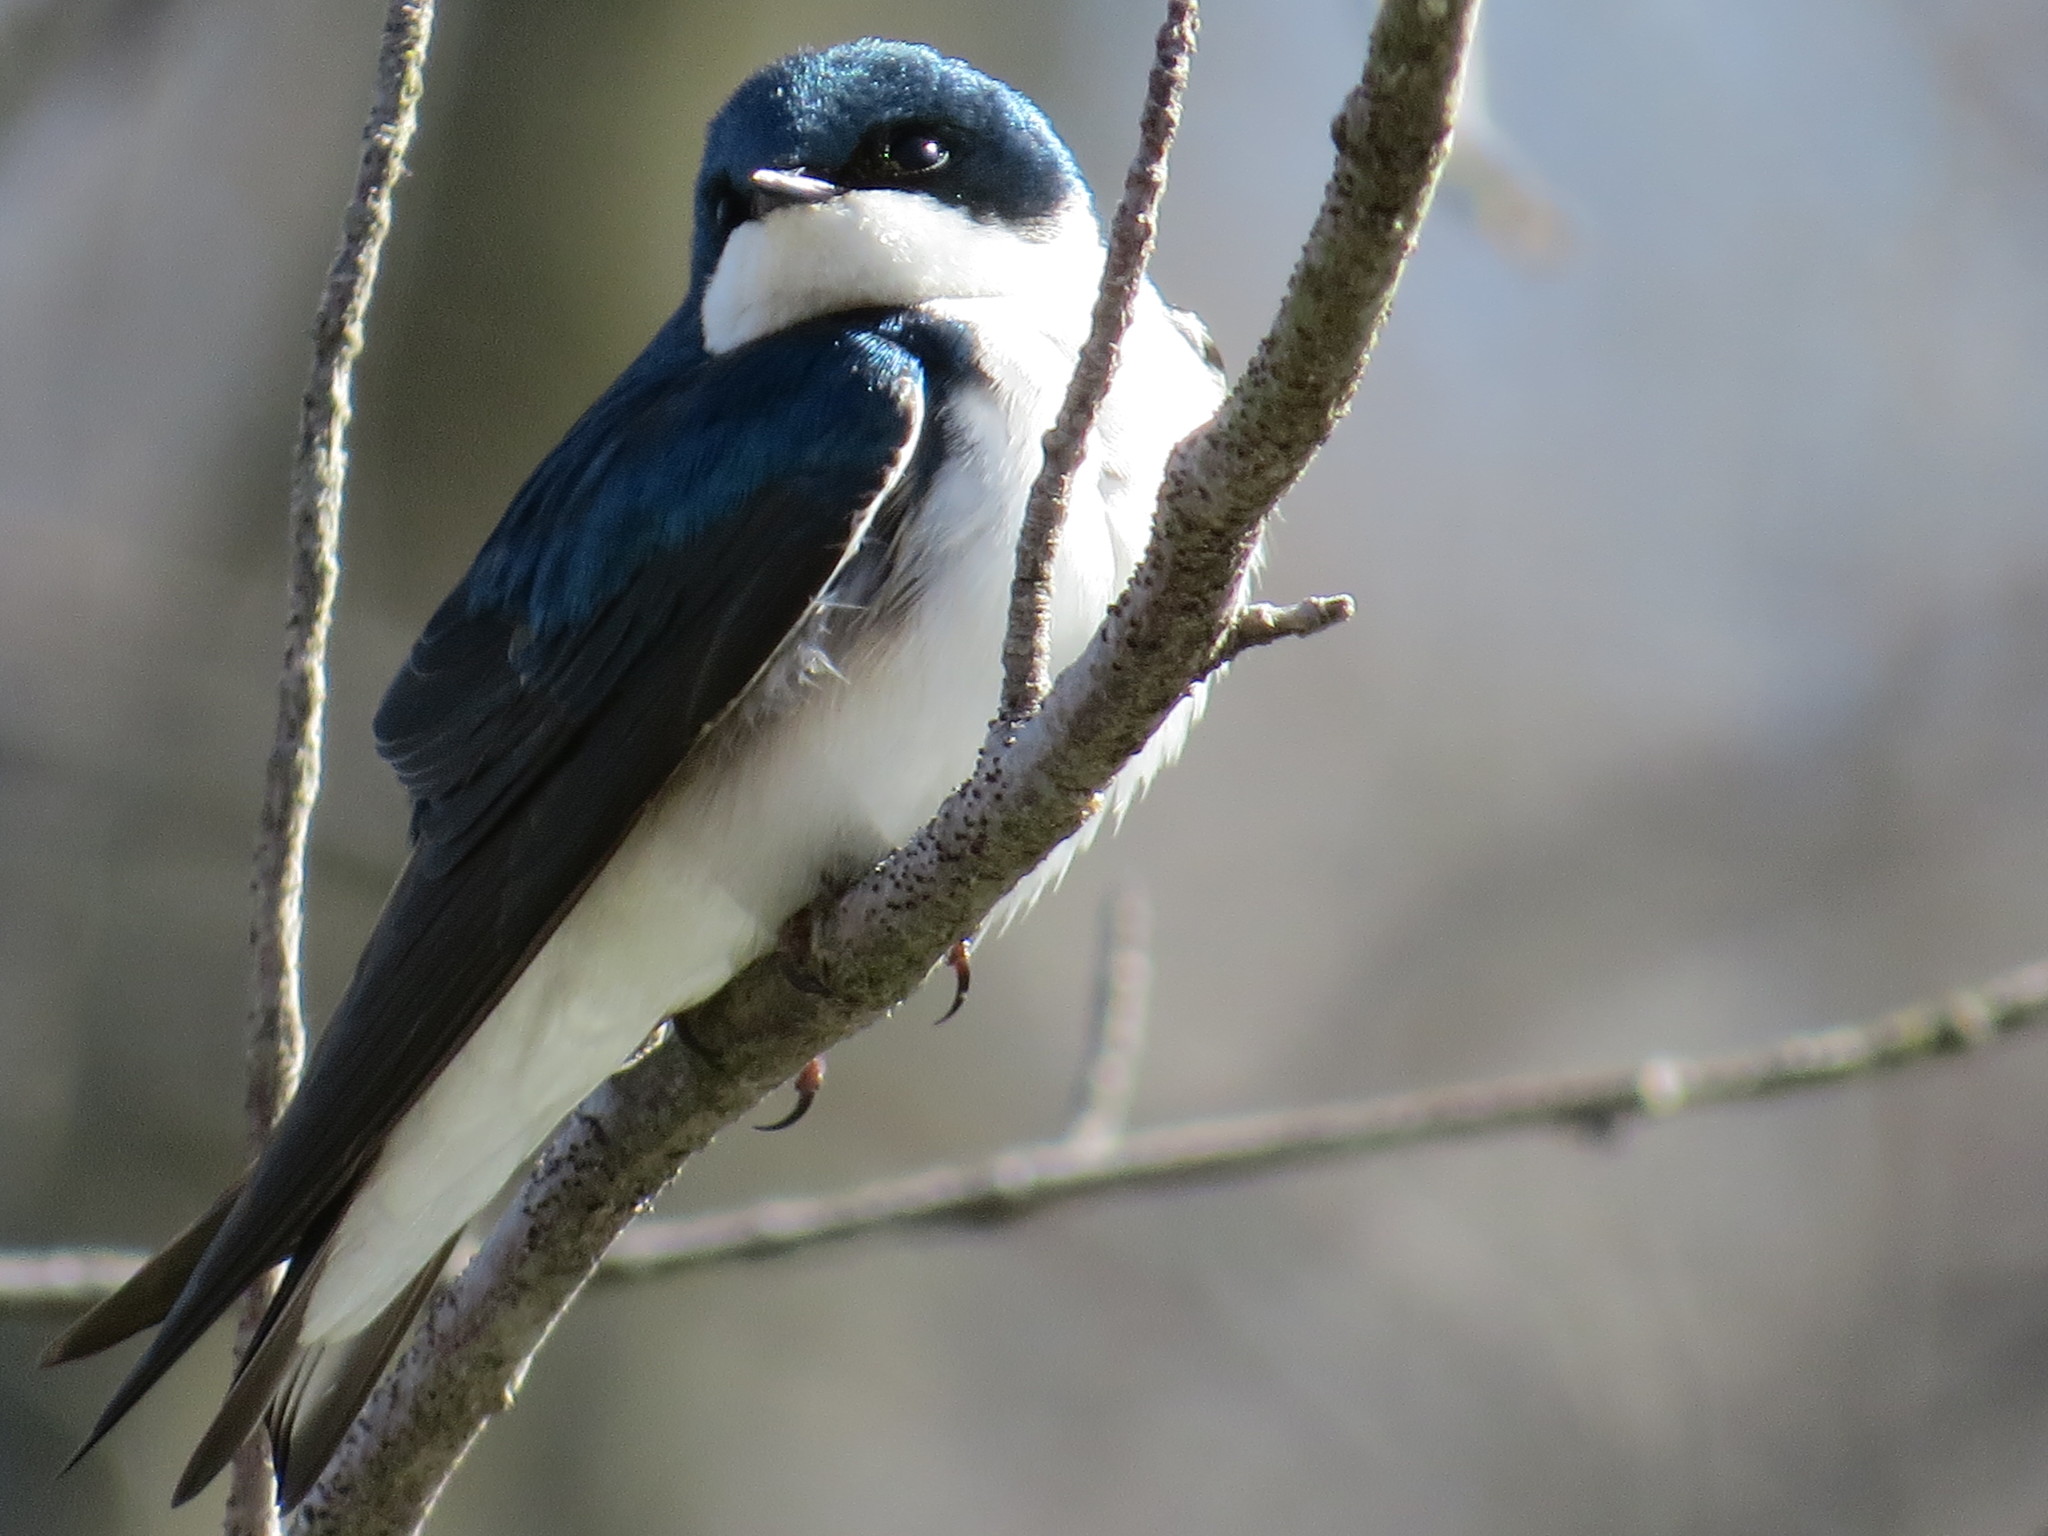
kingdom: Animalia
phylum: Chordata
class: Aves
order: Passeriformes
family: Hirundinidae
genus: Tachycineta
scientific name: Tachycineta bicolor
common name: Tree swallow
